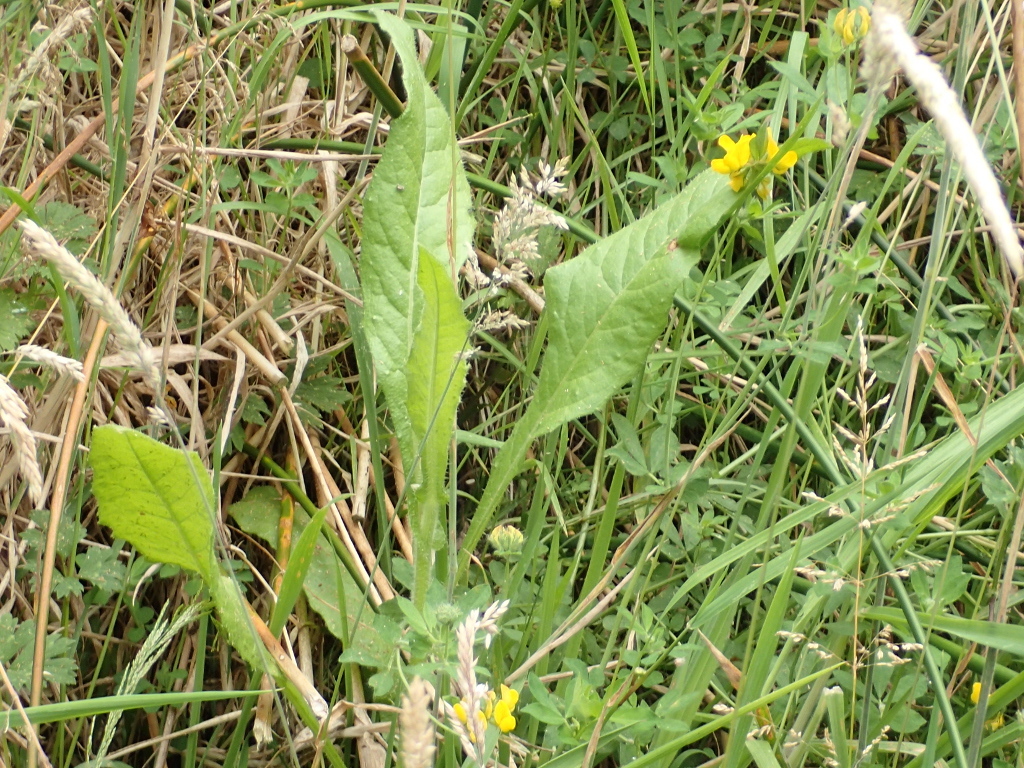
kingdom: Plantae
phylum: Tracheophyta
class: Magnoliopsida
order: Asterales
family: Asteraceae
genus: Helminthotheca
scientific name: Helminthotheca echioides
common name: Ox-tongue
